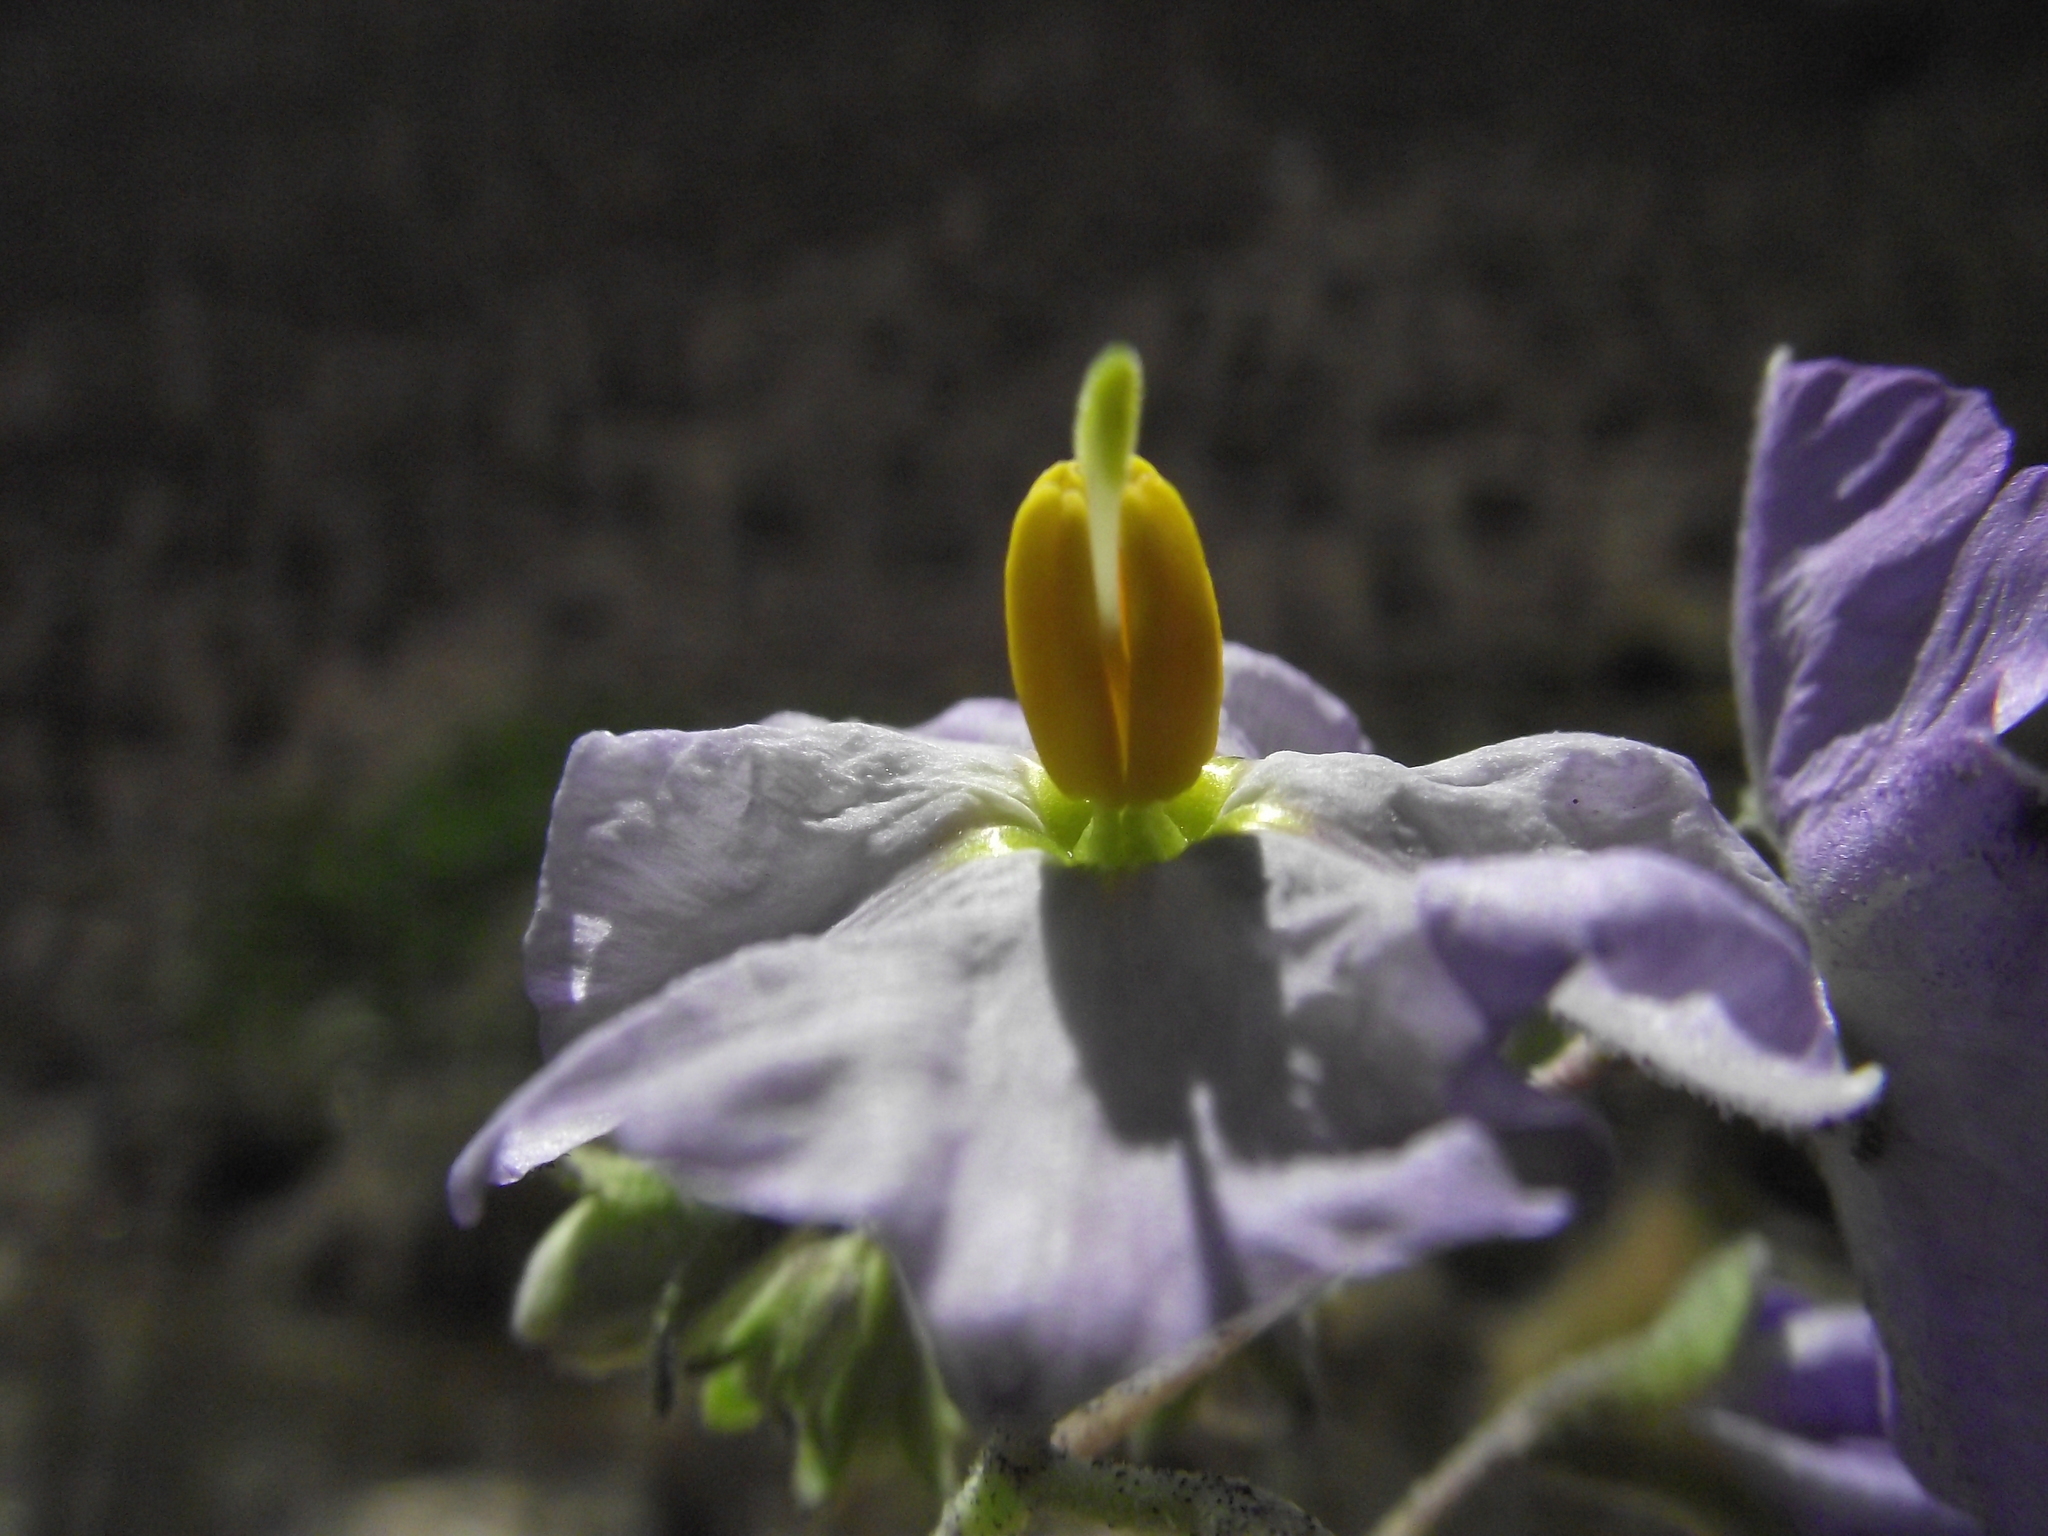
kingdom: Plantae
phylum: Tracheophyta
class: Magnoliopsida
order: Solanales
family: Solanaceae
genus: Solanum
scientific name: Solanum paposanum
